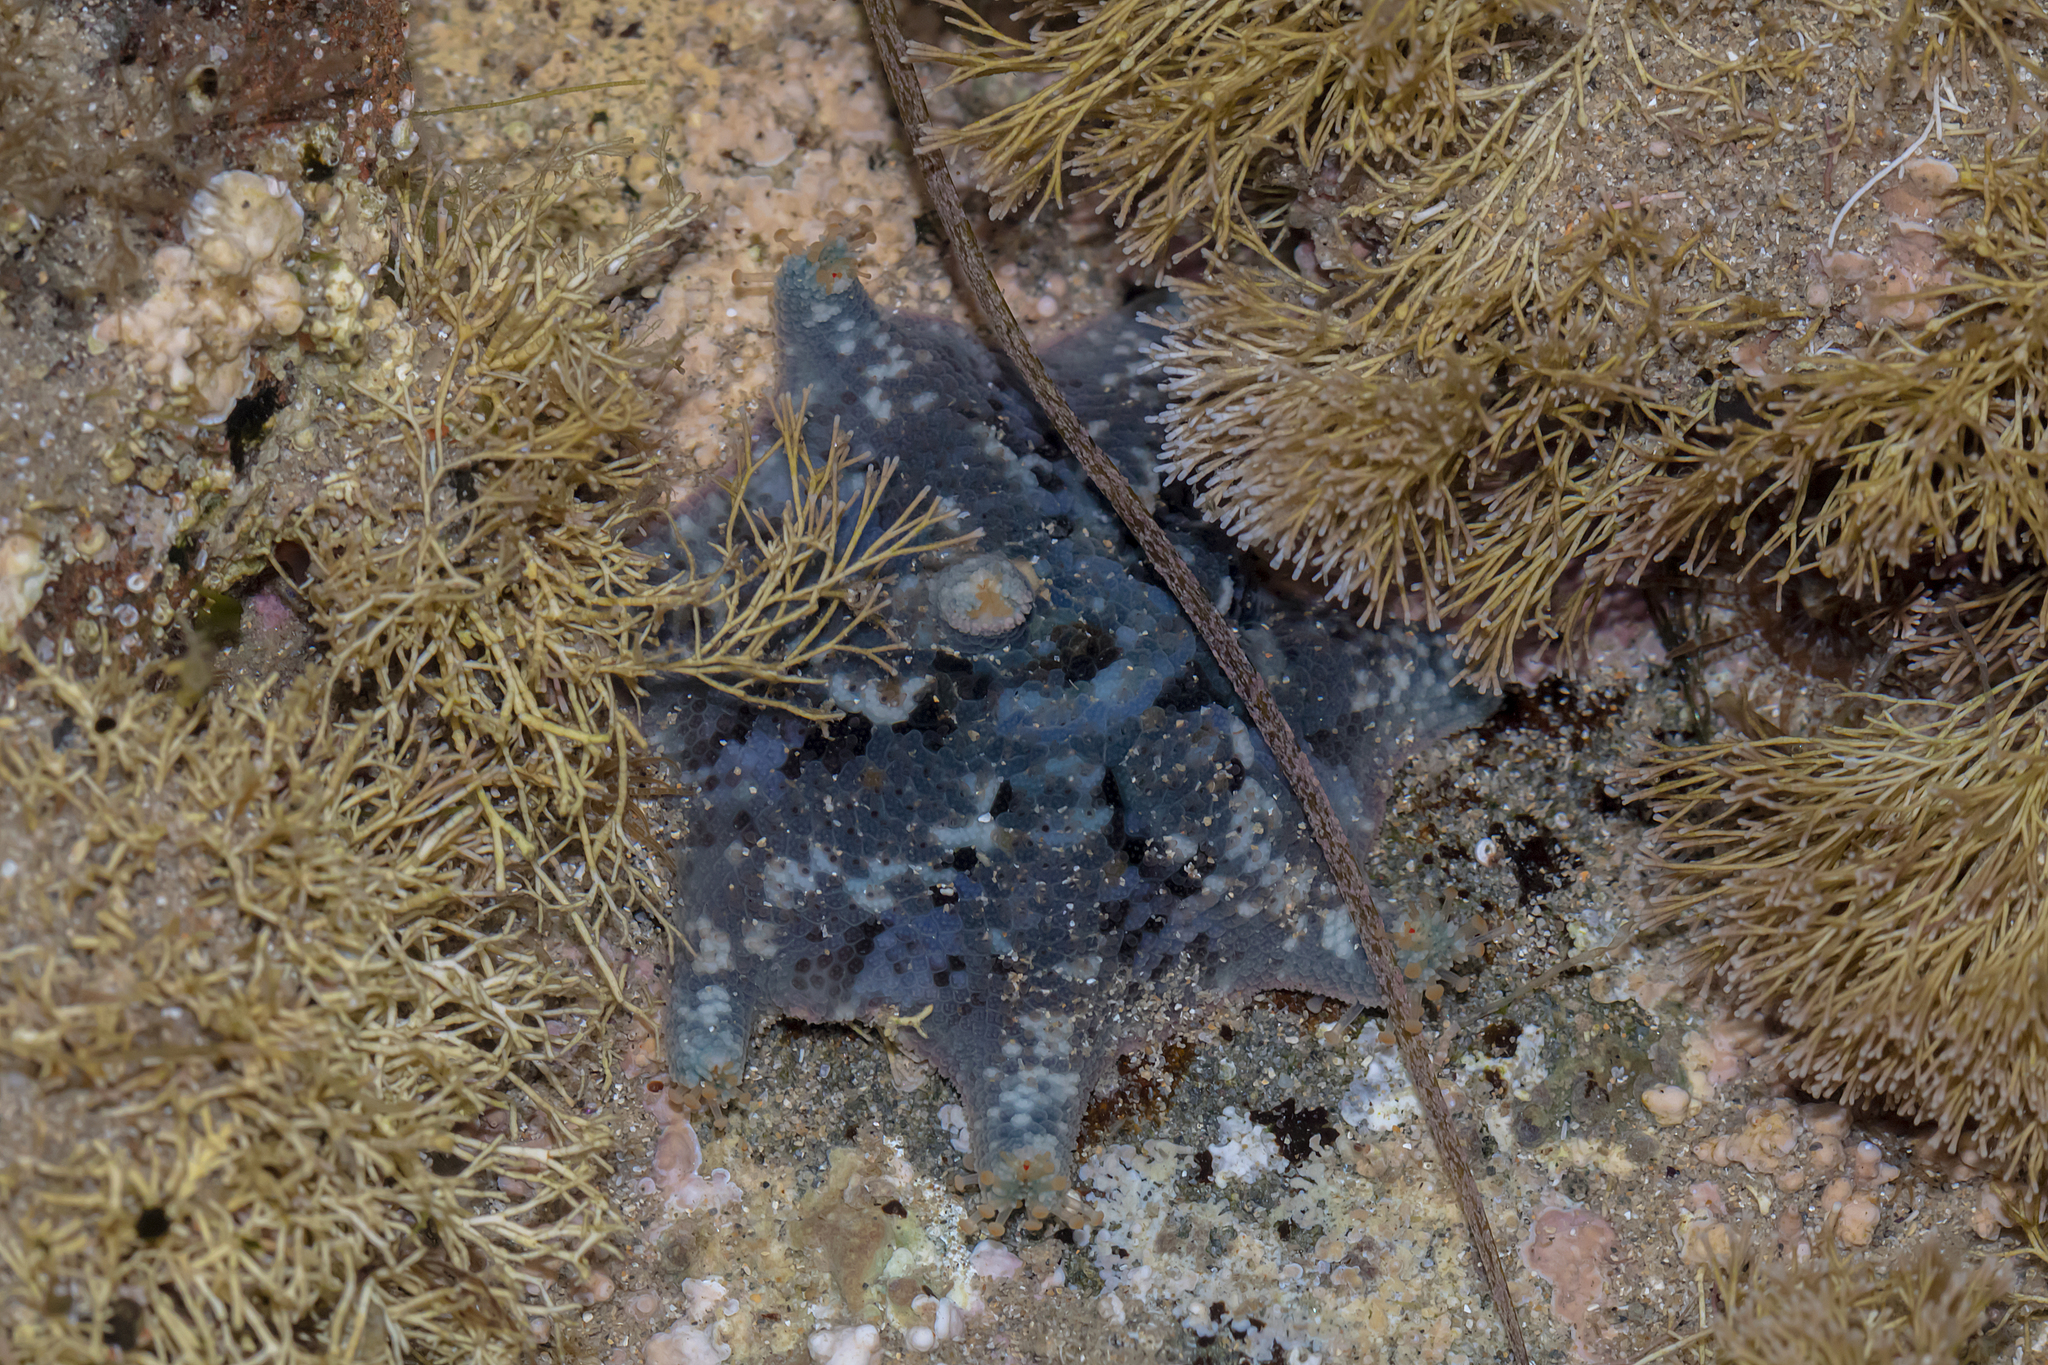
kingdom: Animalia
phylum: Echinodermata
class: Asteroidea
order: Valvatida
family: Asterinidae
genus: Meridiastra
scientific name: Meridiastra calcar
